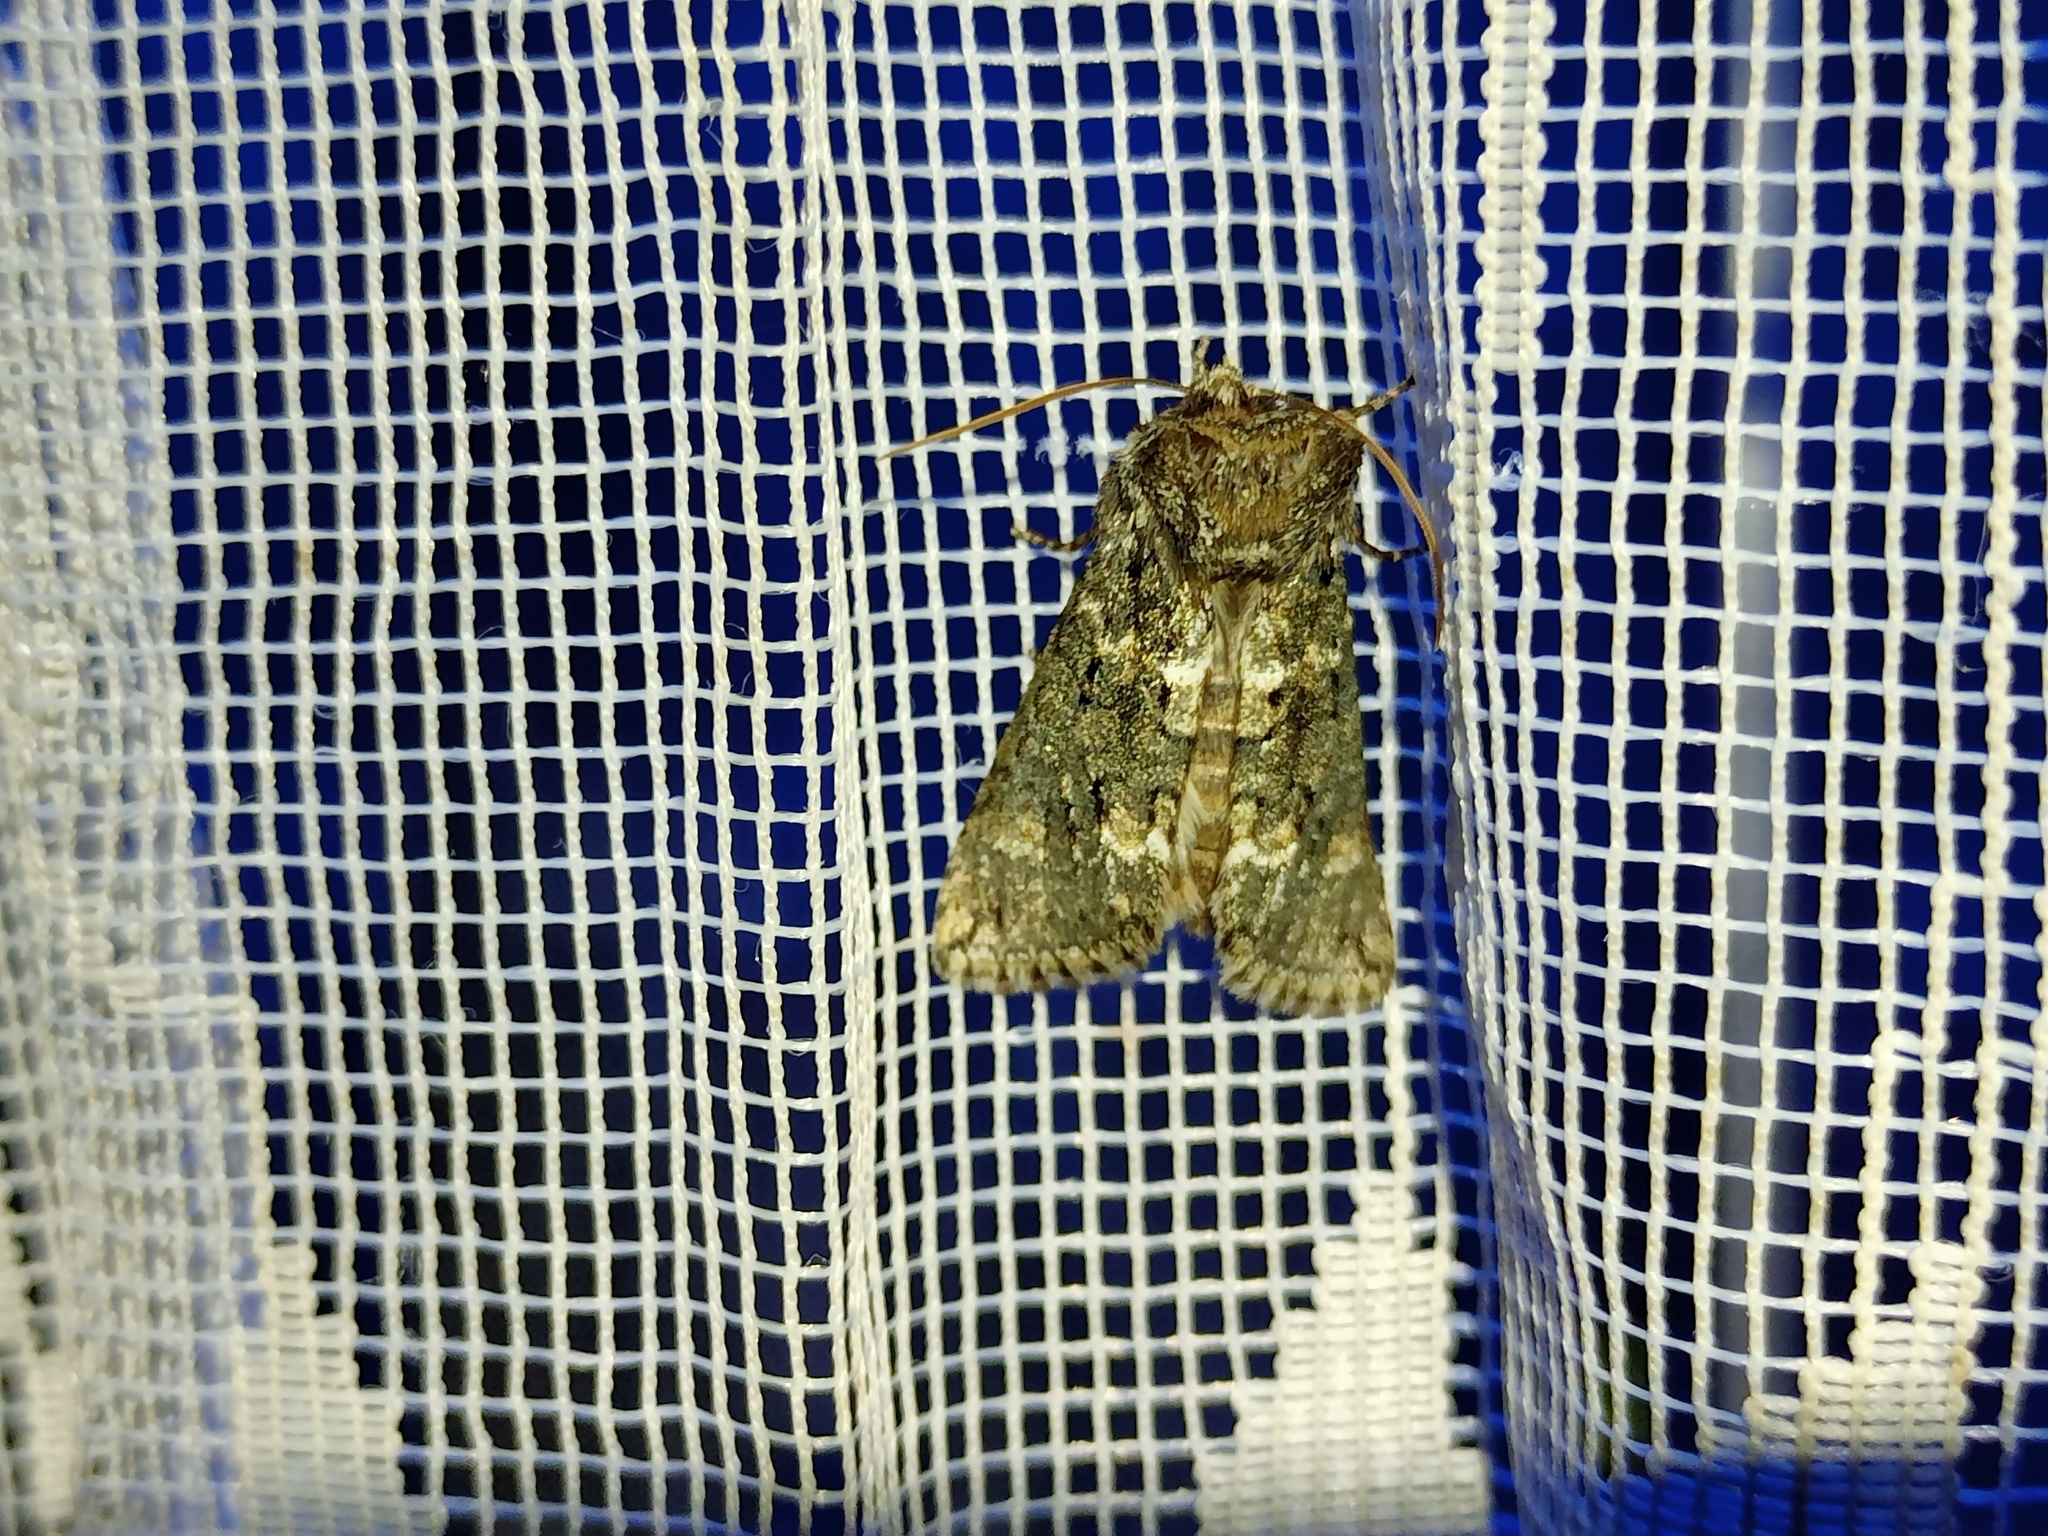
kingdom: Animalia
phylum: Arthropoda
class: Insecta
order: Lepidoptera
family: Drepanidae
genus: Polyploca
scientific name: Polyploca ridens
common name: Frosted green
